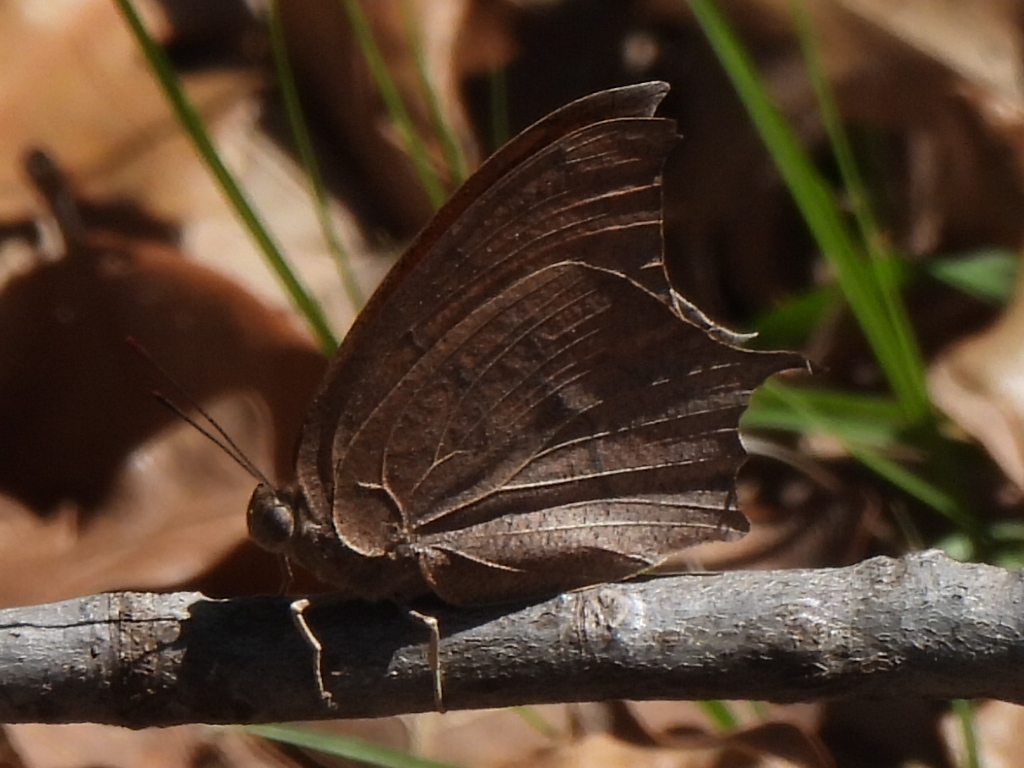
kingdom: Animalia
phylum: Arthropoda
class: Insecta
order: Lepidoptera
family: Nymphalidae
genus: Anaea
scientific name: Anaea andria
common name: Goatweed leafwing
